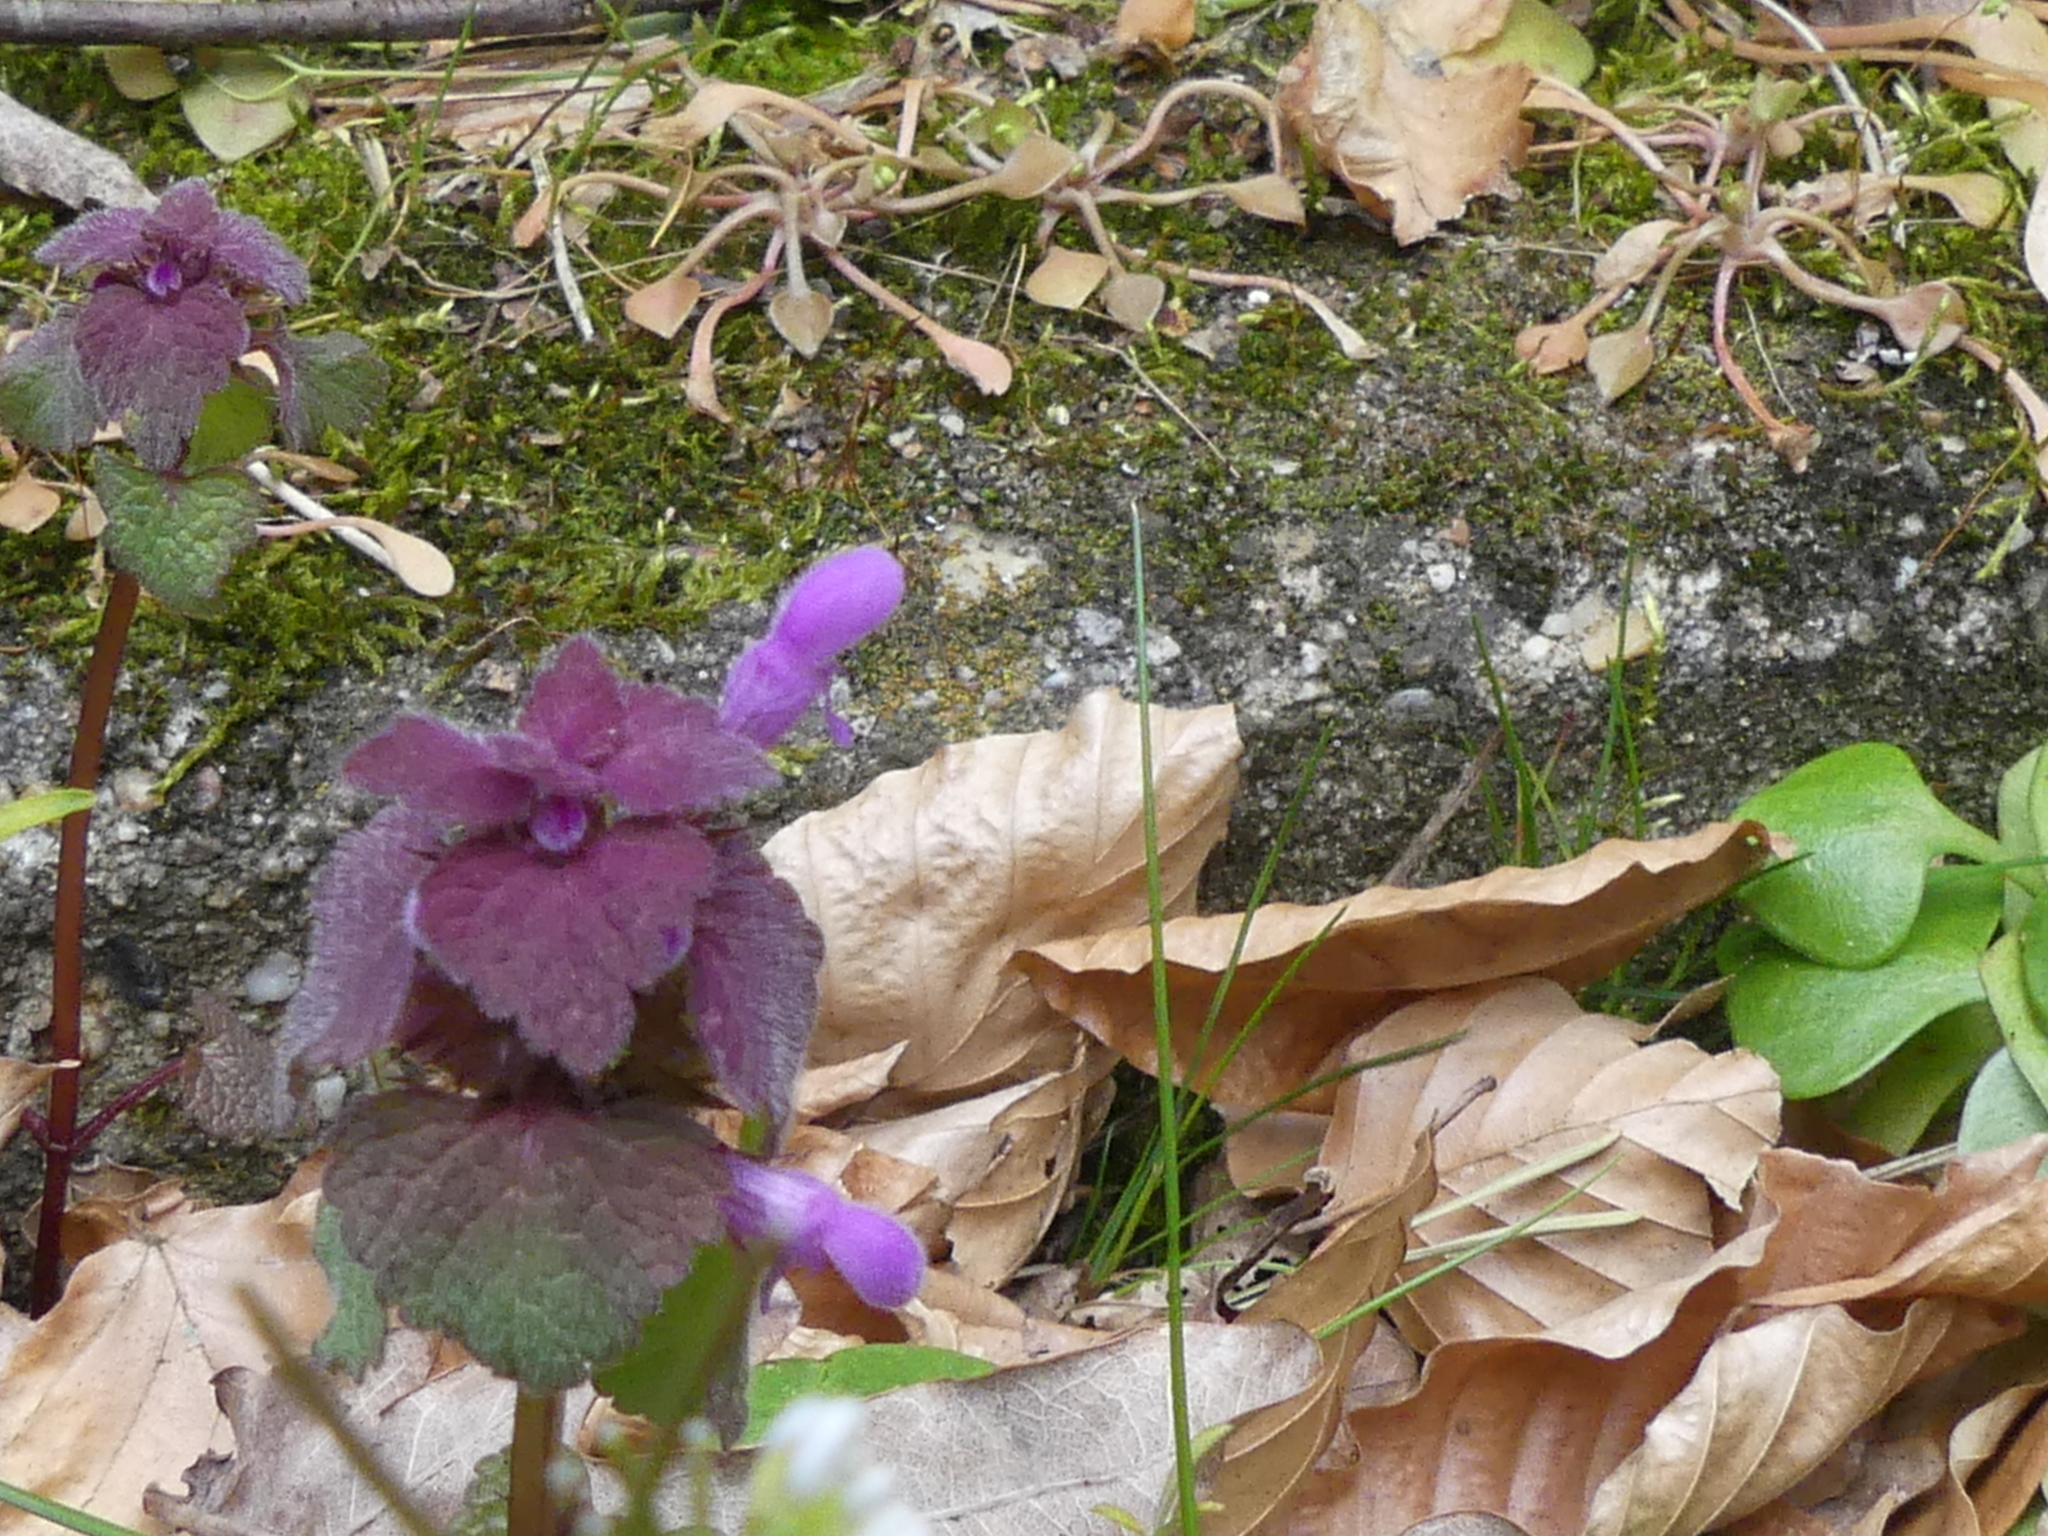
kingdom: Plantae
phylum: Tracheophyta
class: Magnoliopsida
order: Lamiales
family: Lamiaceae
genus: Lamium
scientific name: Lamium purpureum
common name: Red dead-nettle
